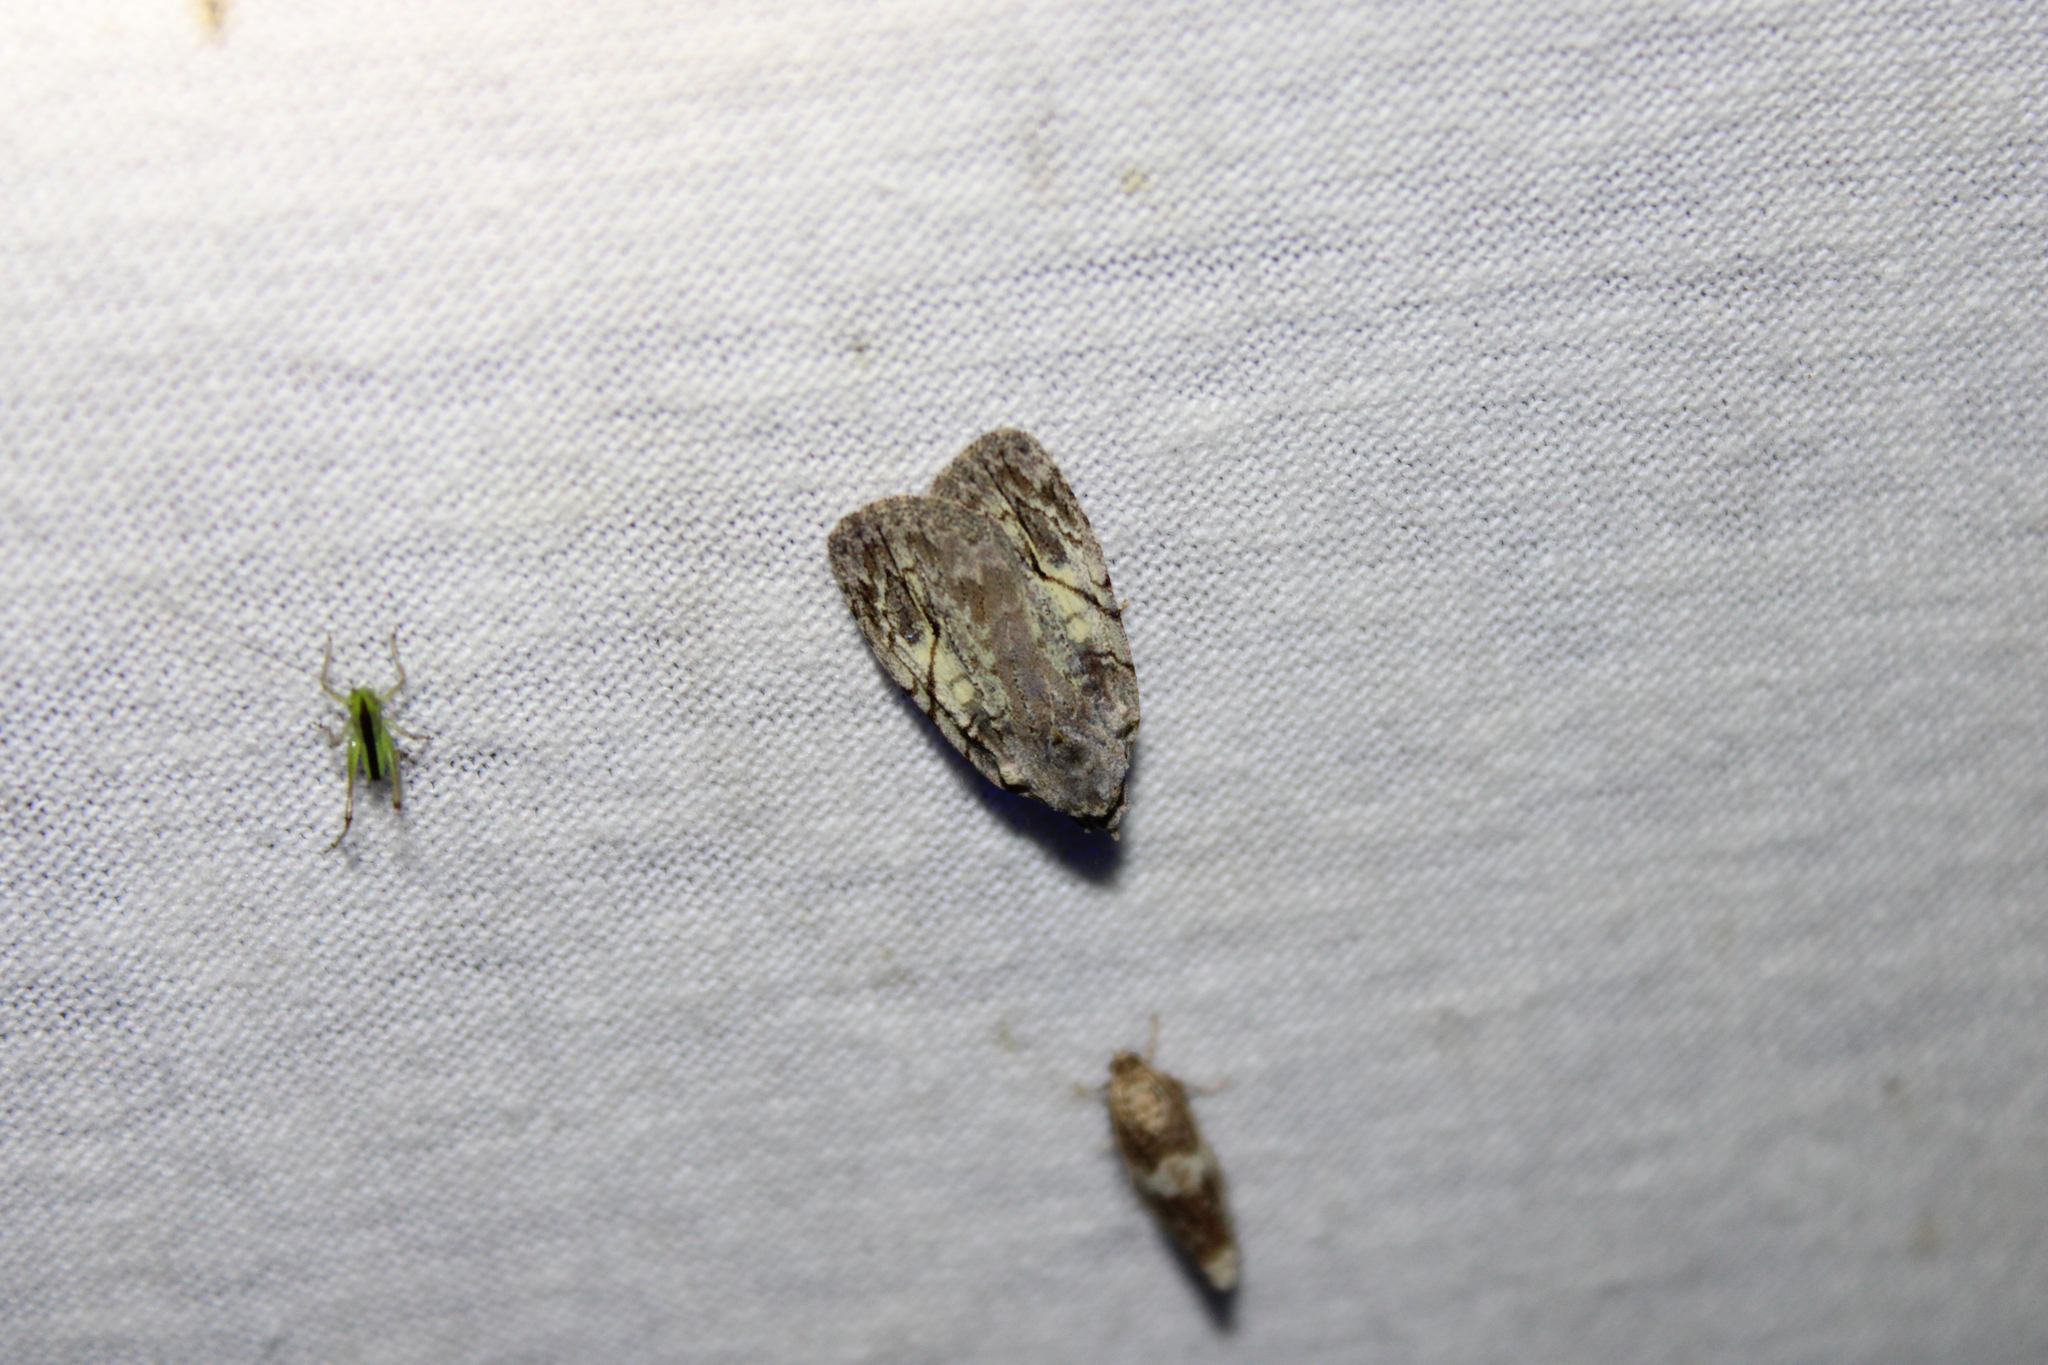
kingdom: Animalia
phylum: Arthropoda
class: Insecta
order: Lepidoptera
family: Noctuidae
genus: Balsa
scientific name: Balsa labecula
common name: White-blotched balsa moth
